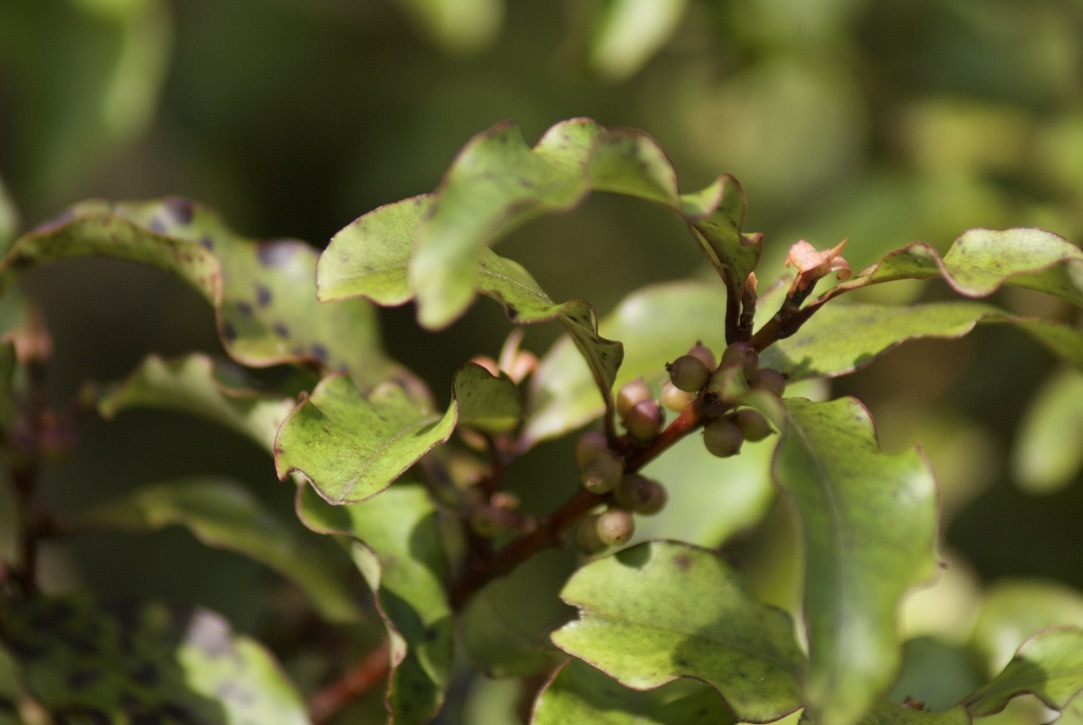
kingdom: Plantae
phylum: Tracheophyta
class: Magnoliopsida
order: Ericales
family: Primulaceae
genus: Myrsine
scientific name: Myrsine australis
